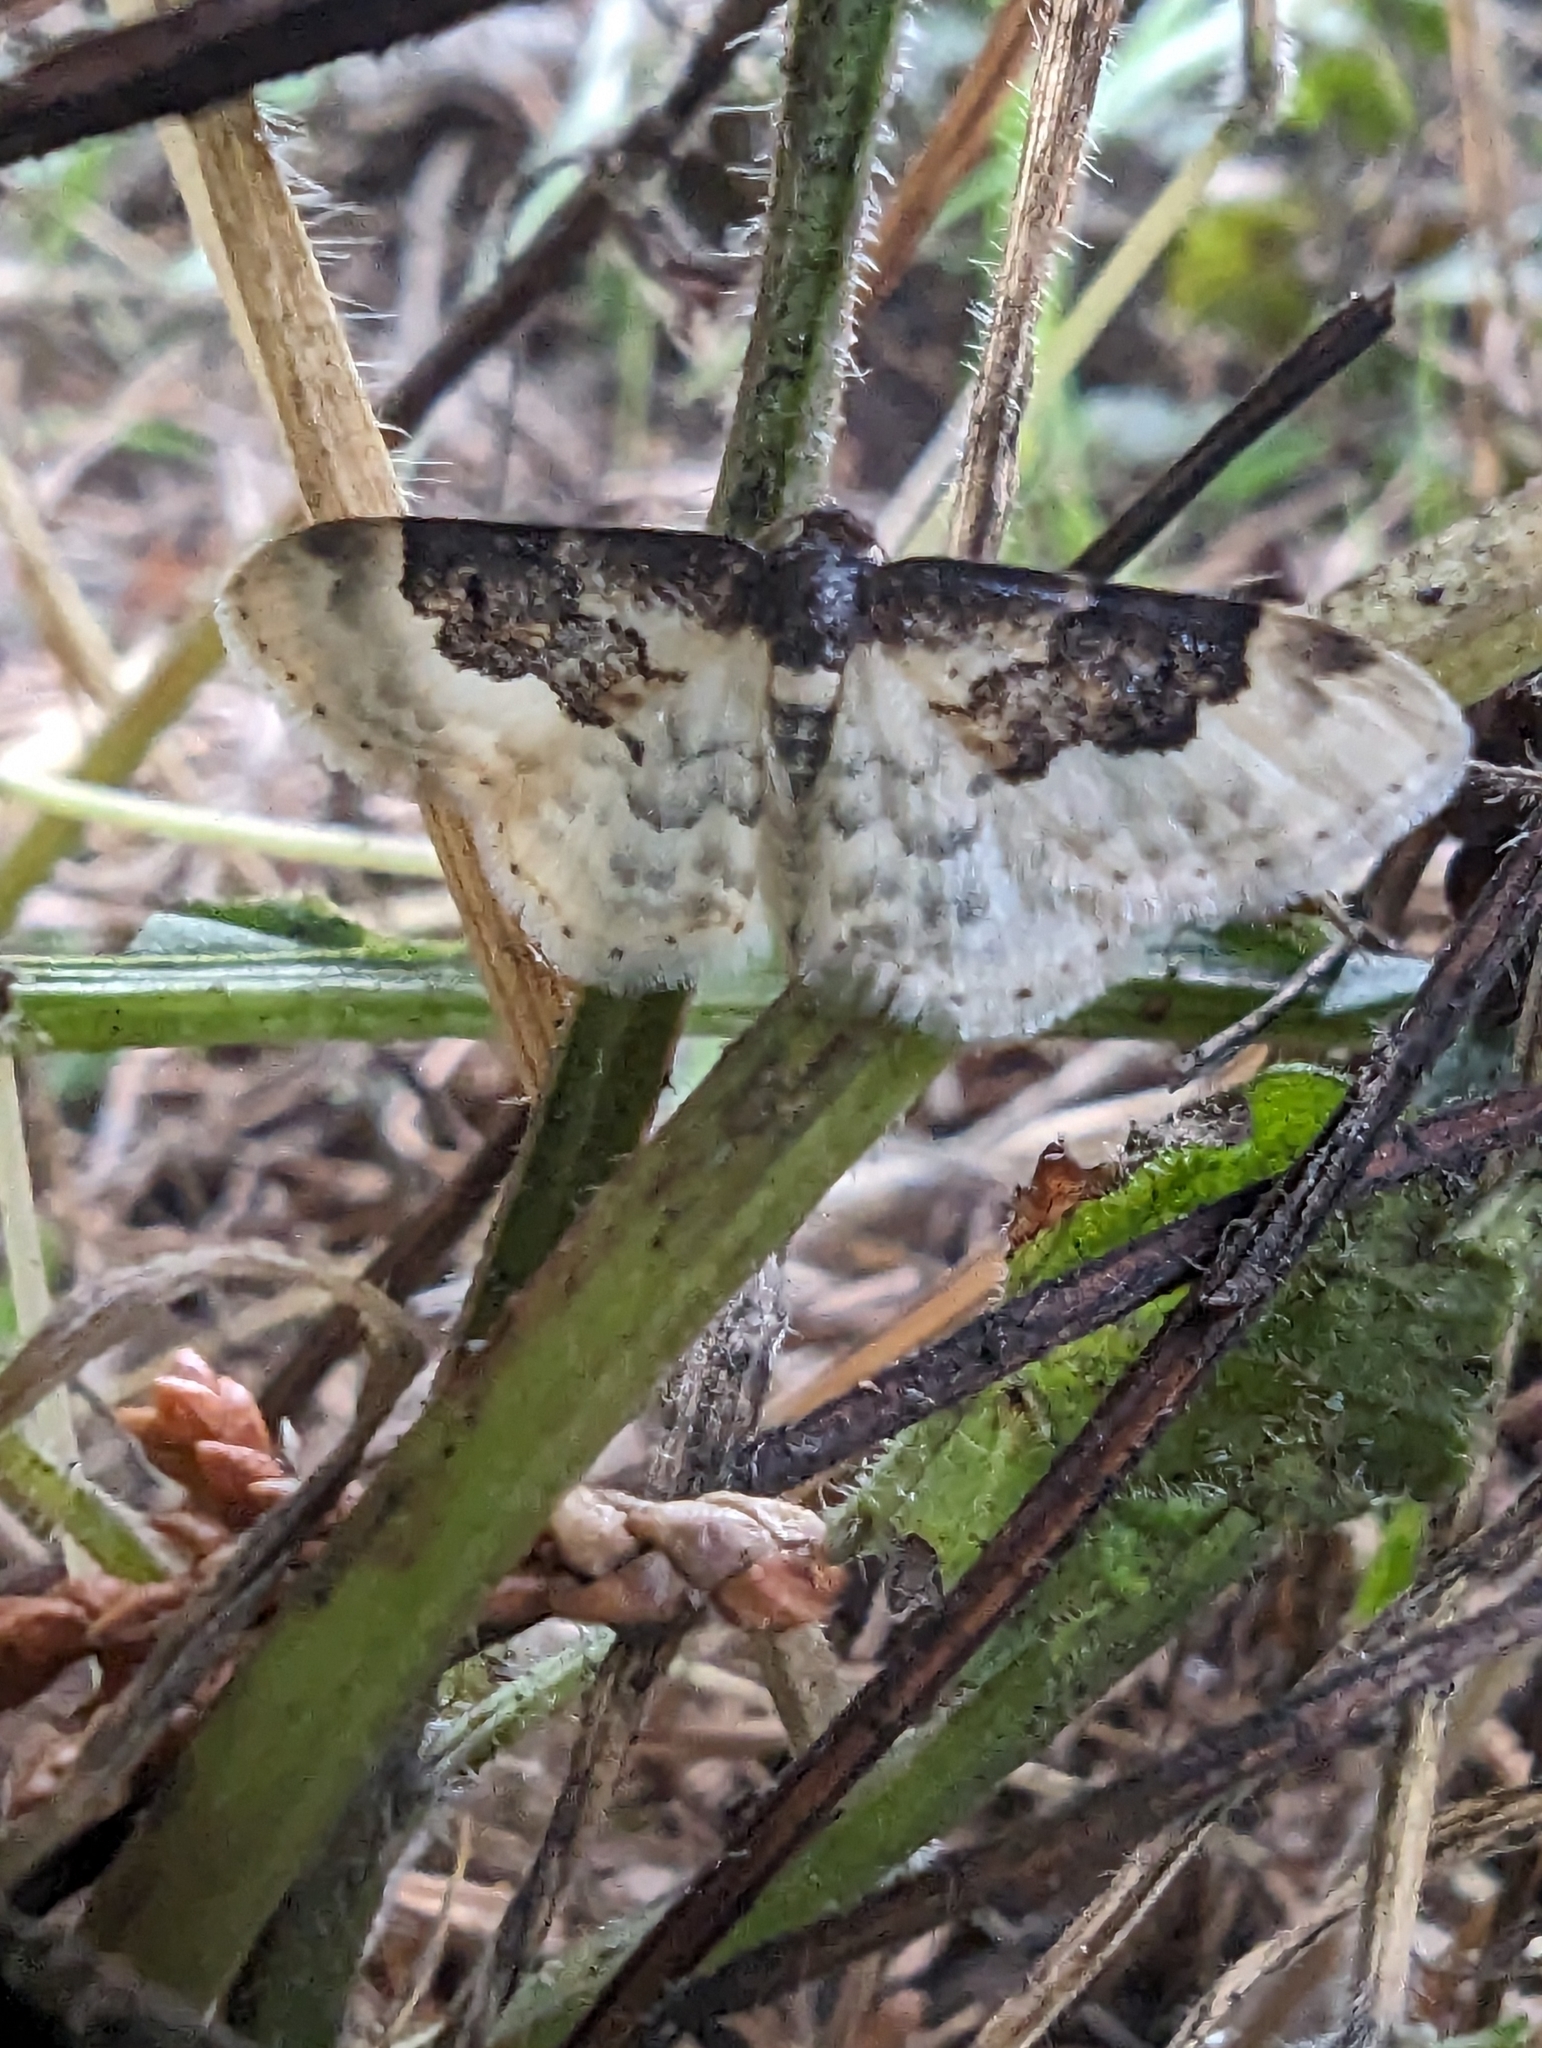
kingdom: Animalia
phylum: Arthropoda
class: Insecta
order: Lepidoptera
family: Geometridae
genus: Idaea
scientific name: Idaea rusticata
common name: Least carpet
